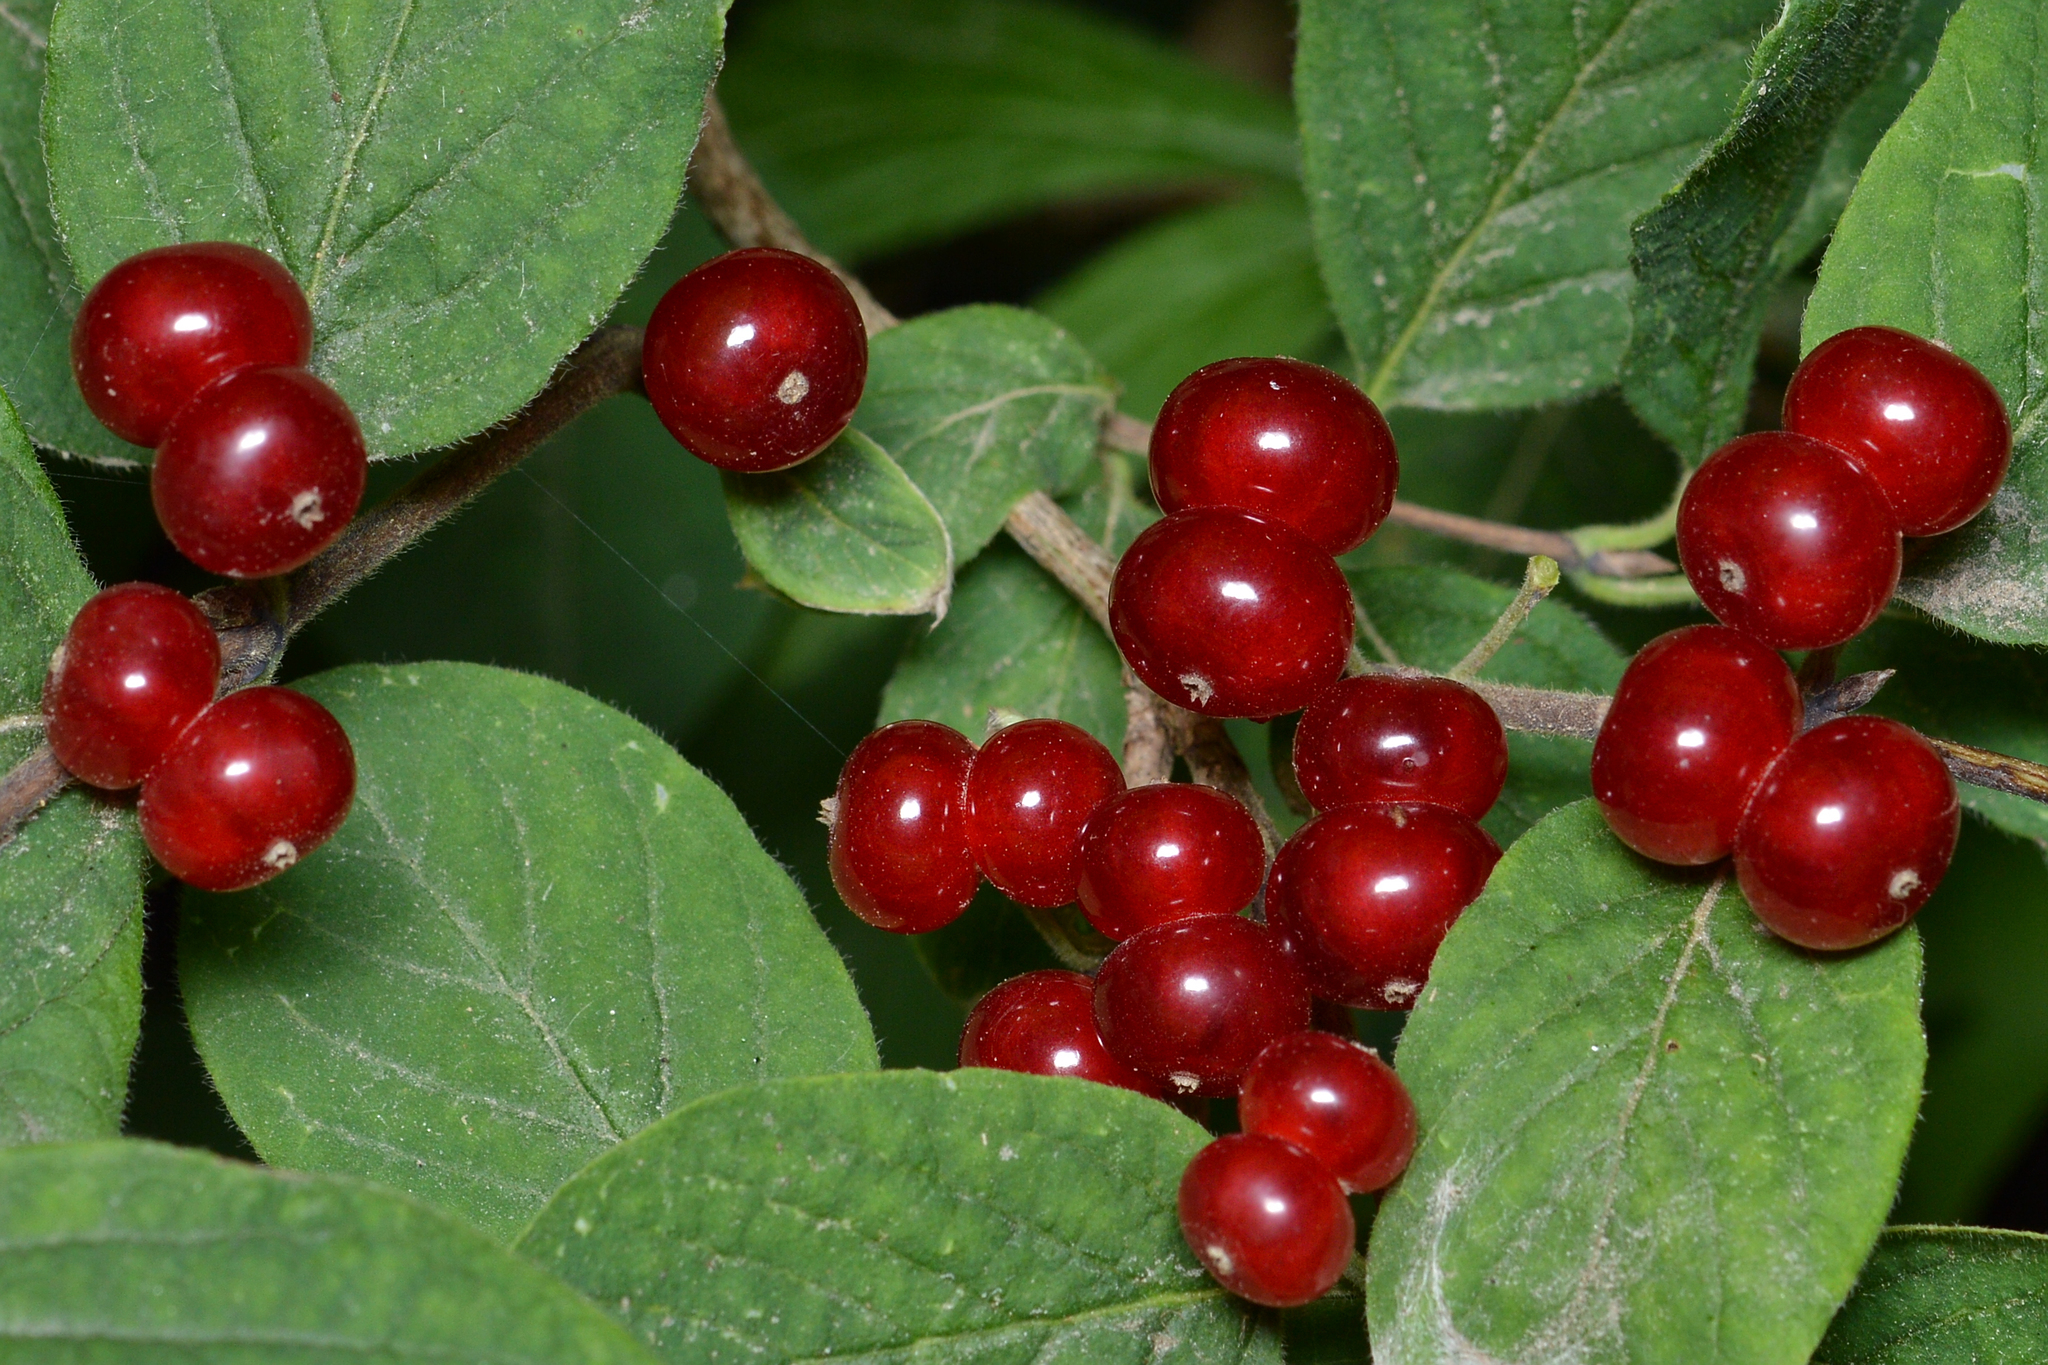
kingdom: Plantae
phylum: Tracheophyta
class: Magnoliopsida
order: Dipsacales
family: Caprifoliaceae
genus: Lonicera
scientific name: Lonicera xylosteum
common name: Fly honeysuckle
